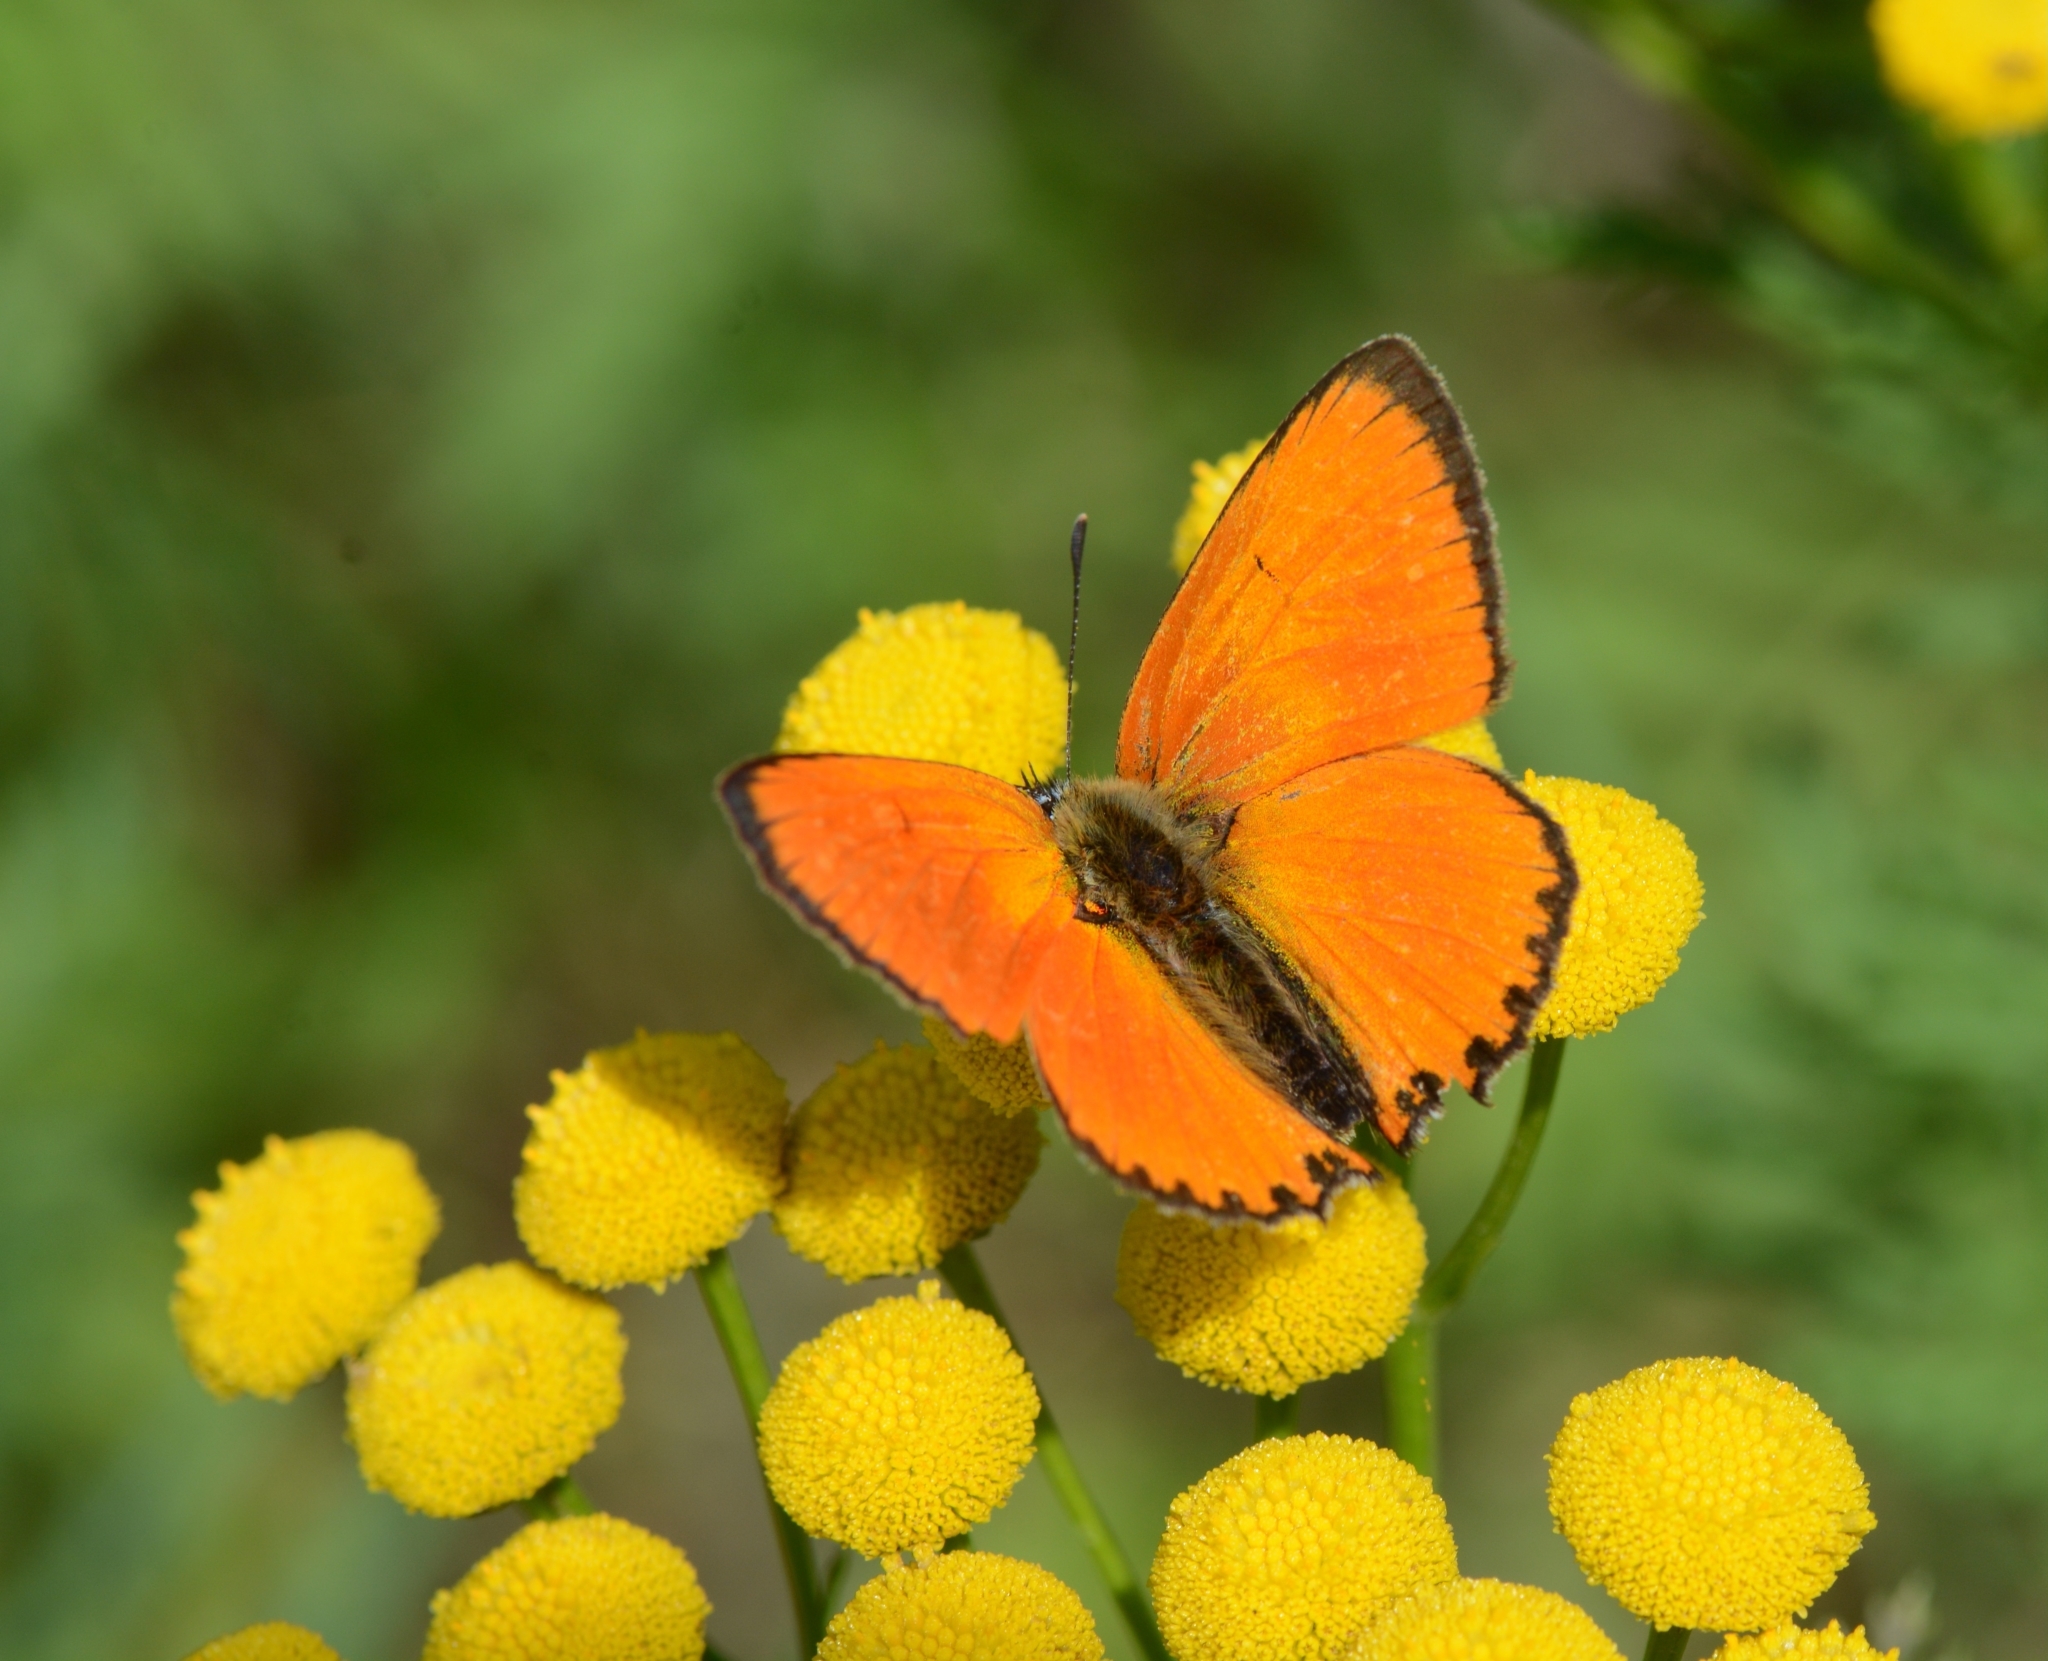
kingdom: Animalia
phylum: Arthropoda
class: Insecta
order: Lepidoptera
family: Lycaenidae
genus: Lycaena
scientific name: Lycaena virgaureae
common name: Scarce copper
